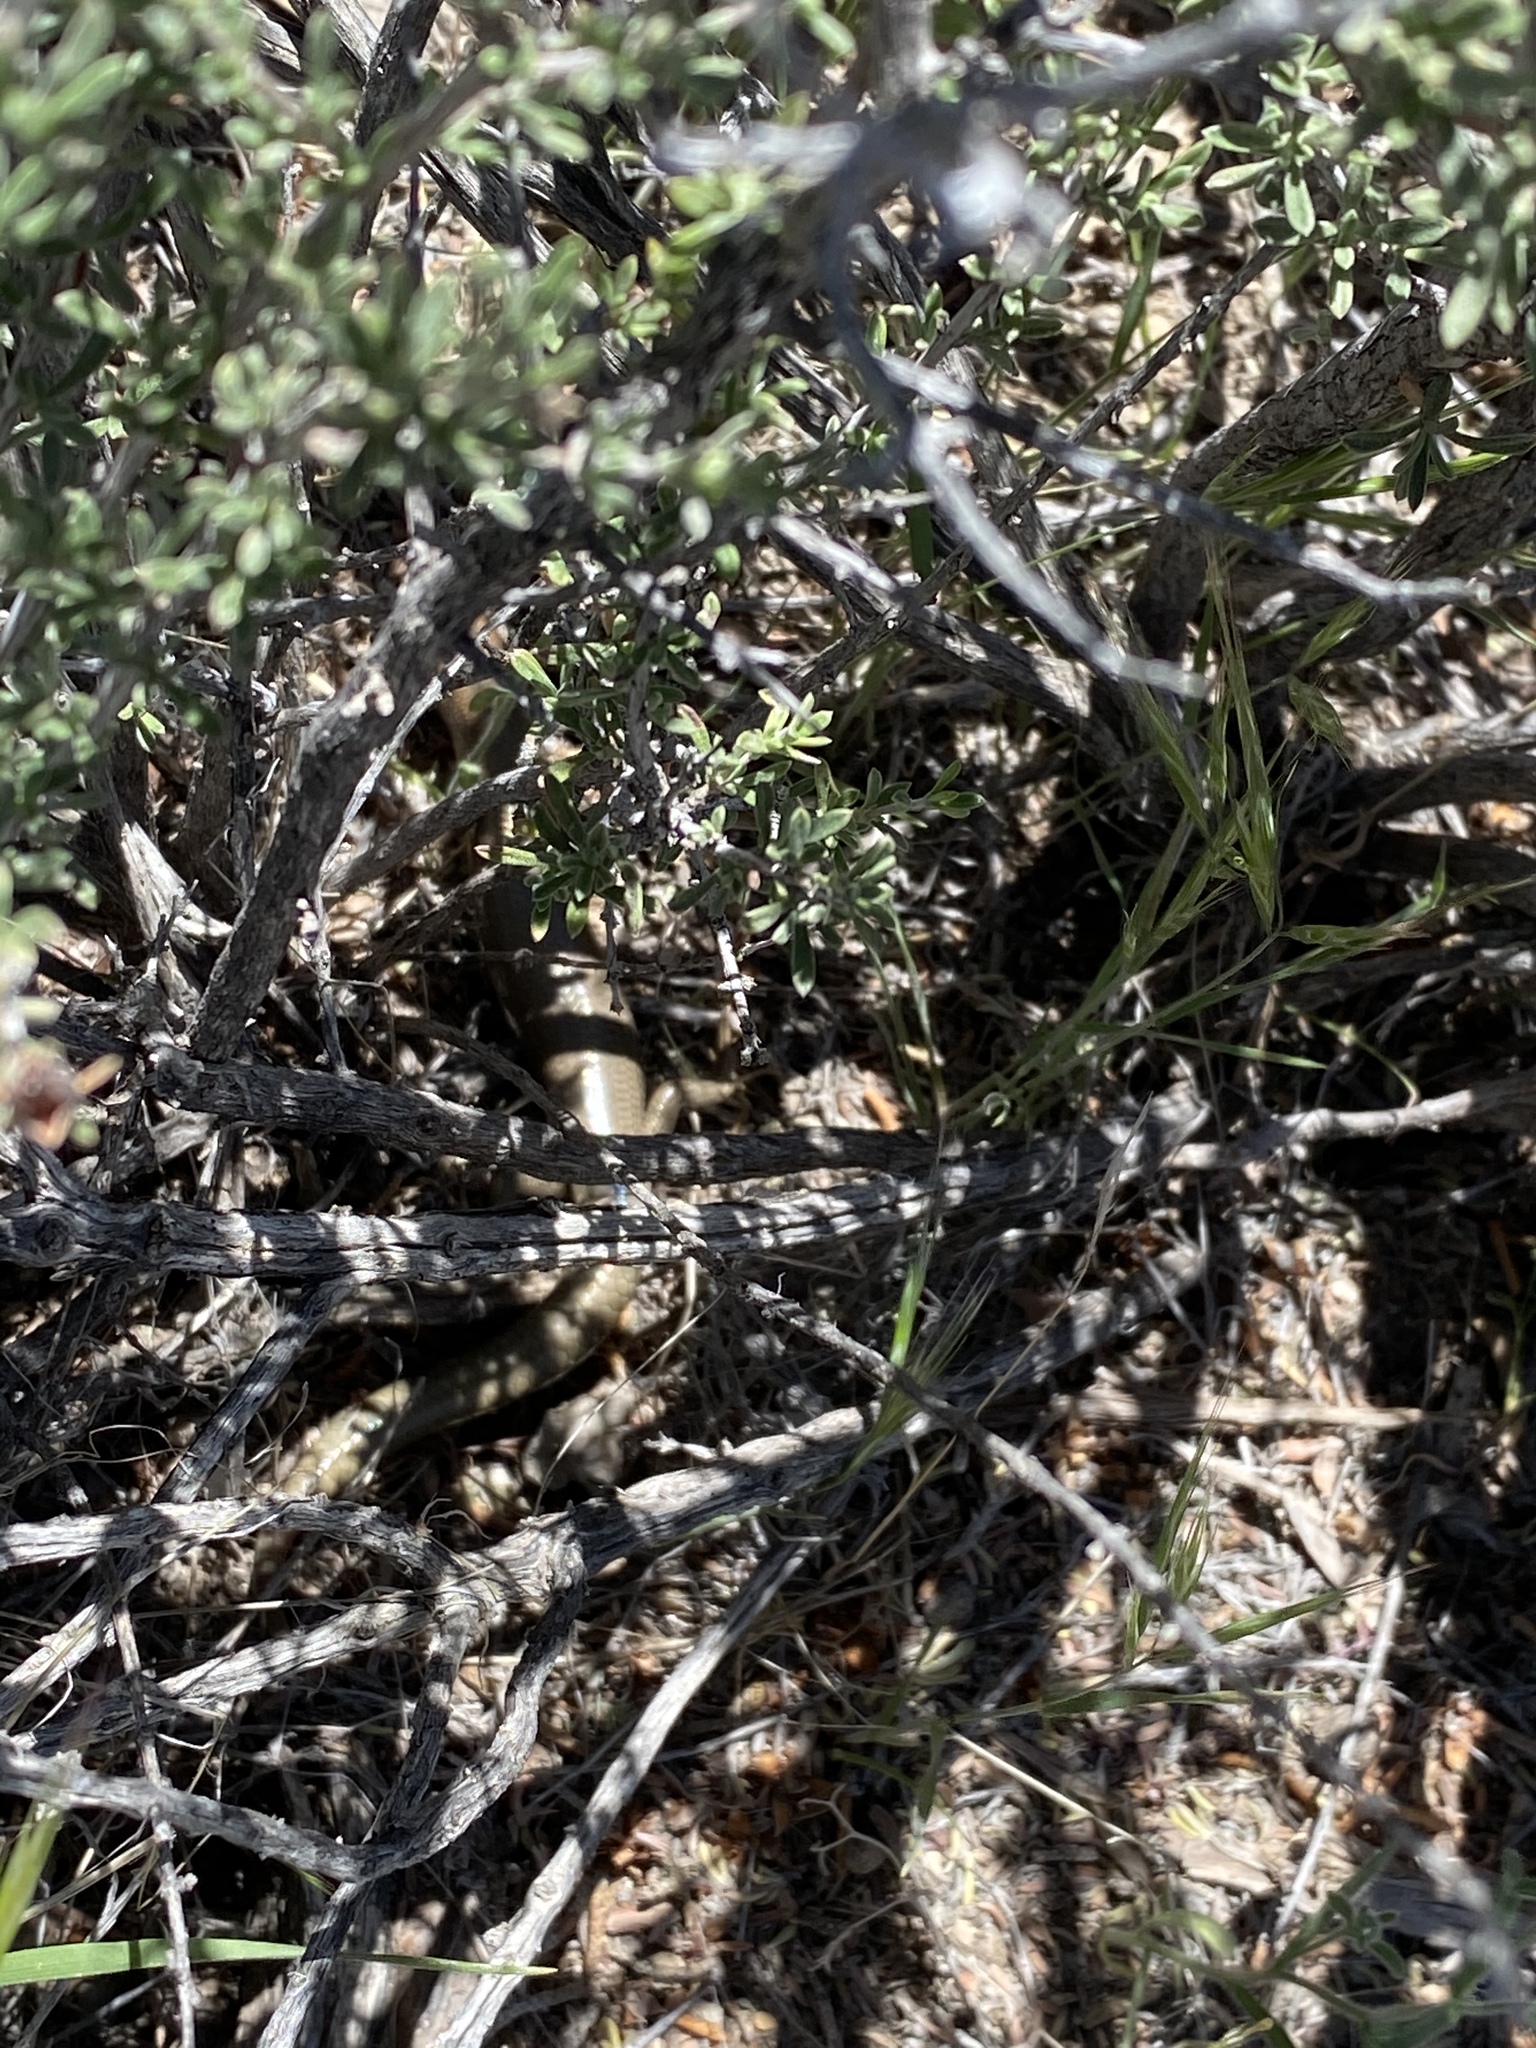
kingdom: Animalia
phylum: Chordata
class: Squamata
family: Scincidae
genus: Plestiodon
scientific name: Plestiodon gilberti
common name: Gilbert's skink
